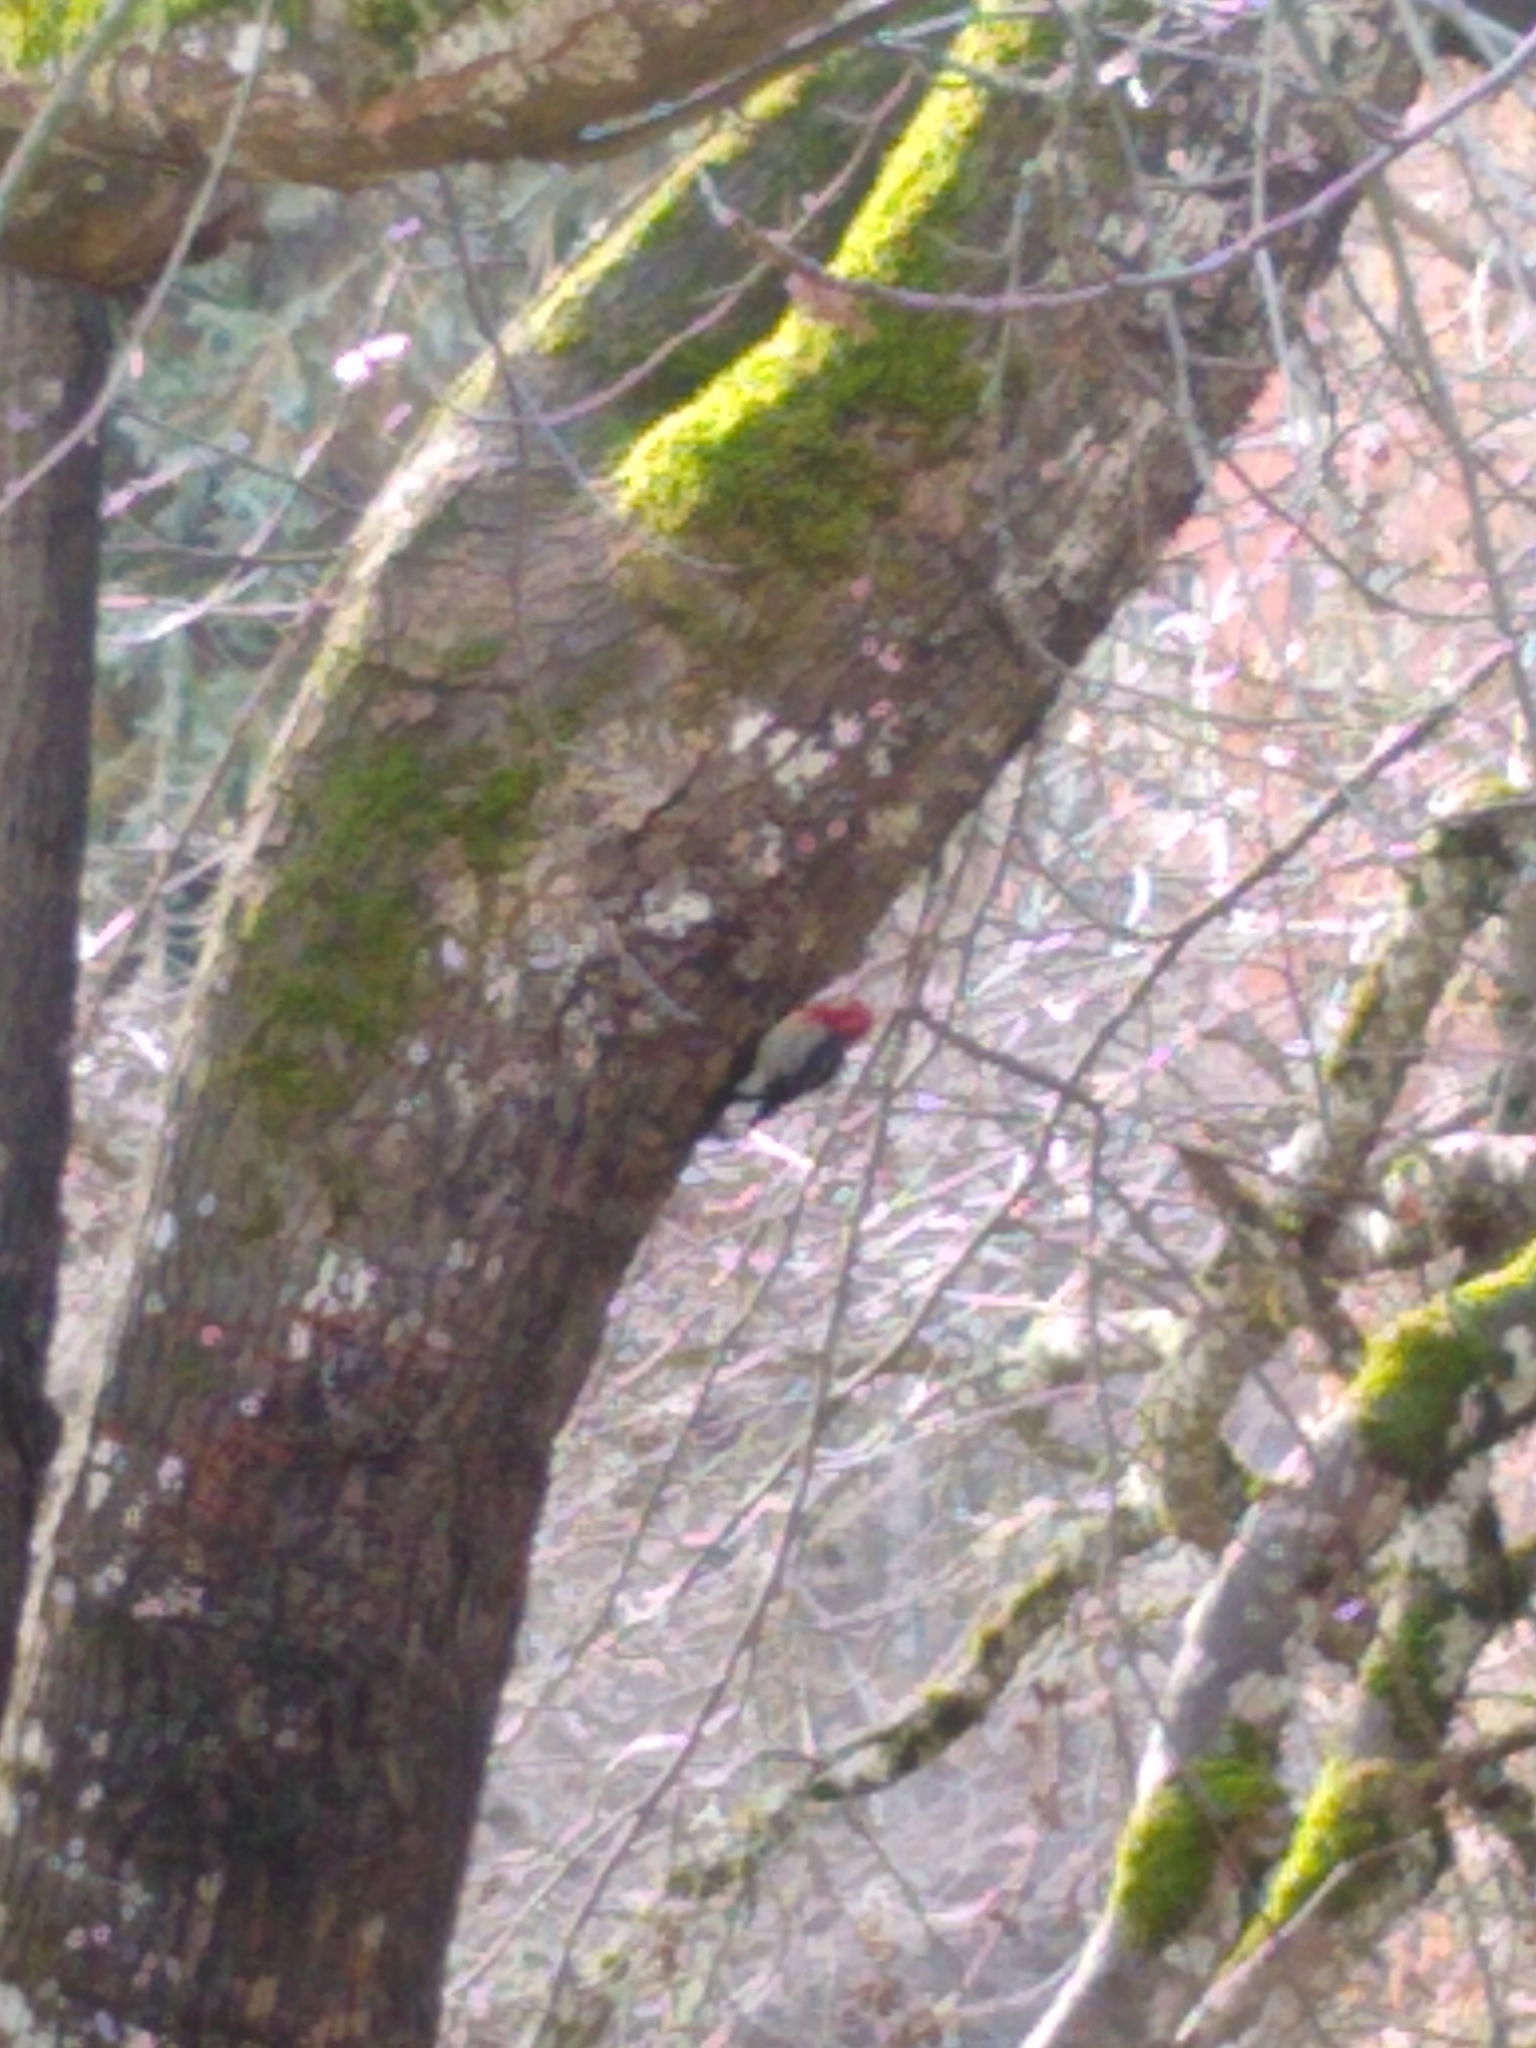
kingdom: Animalia
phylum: Chordata
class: Aves
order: Piciformes
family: Picidae
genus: Sphyrapicus
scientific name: Sphyrapicus ruber
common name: Red-breasted sapsucker
